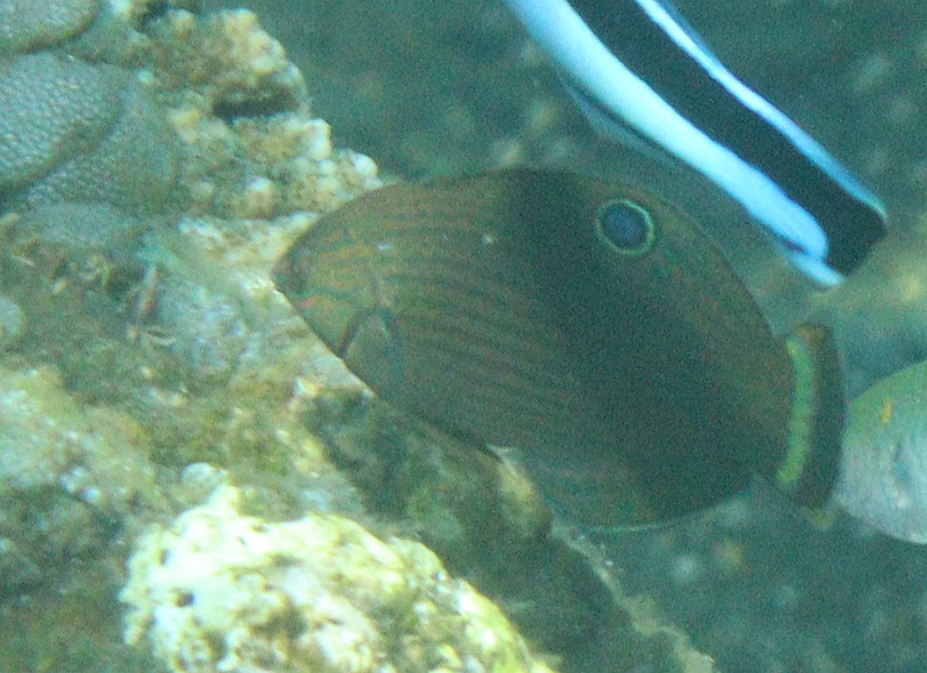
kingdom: Animalia
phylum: Chordata
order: Perciformes
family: Labridae
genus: Halichoeres
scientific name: Halichoeres
